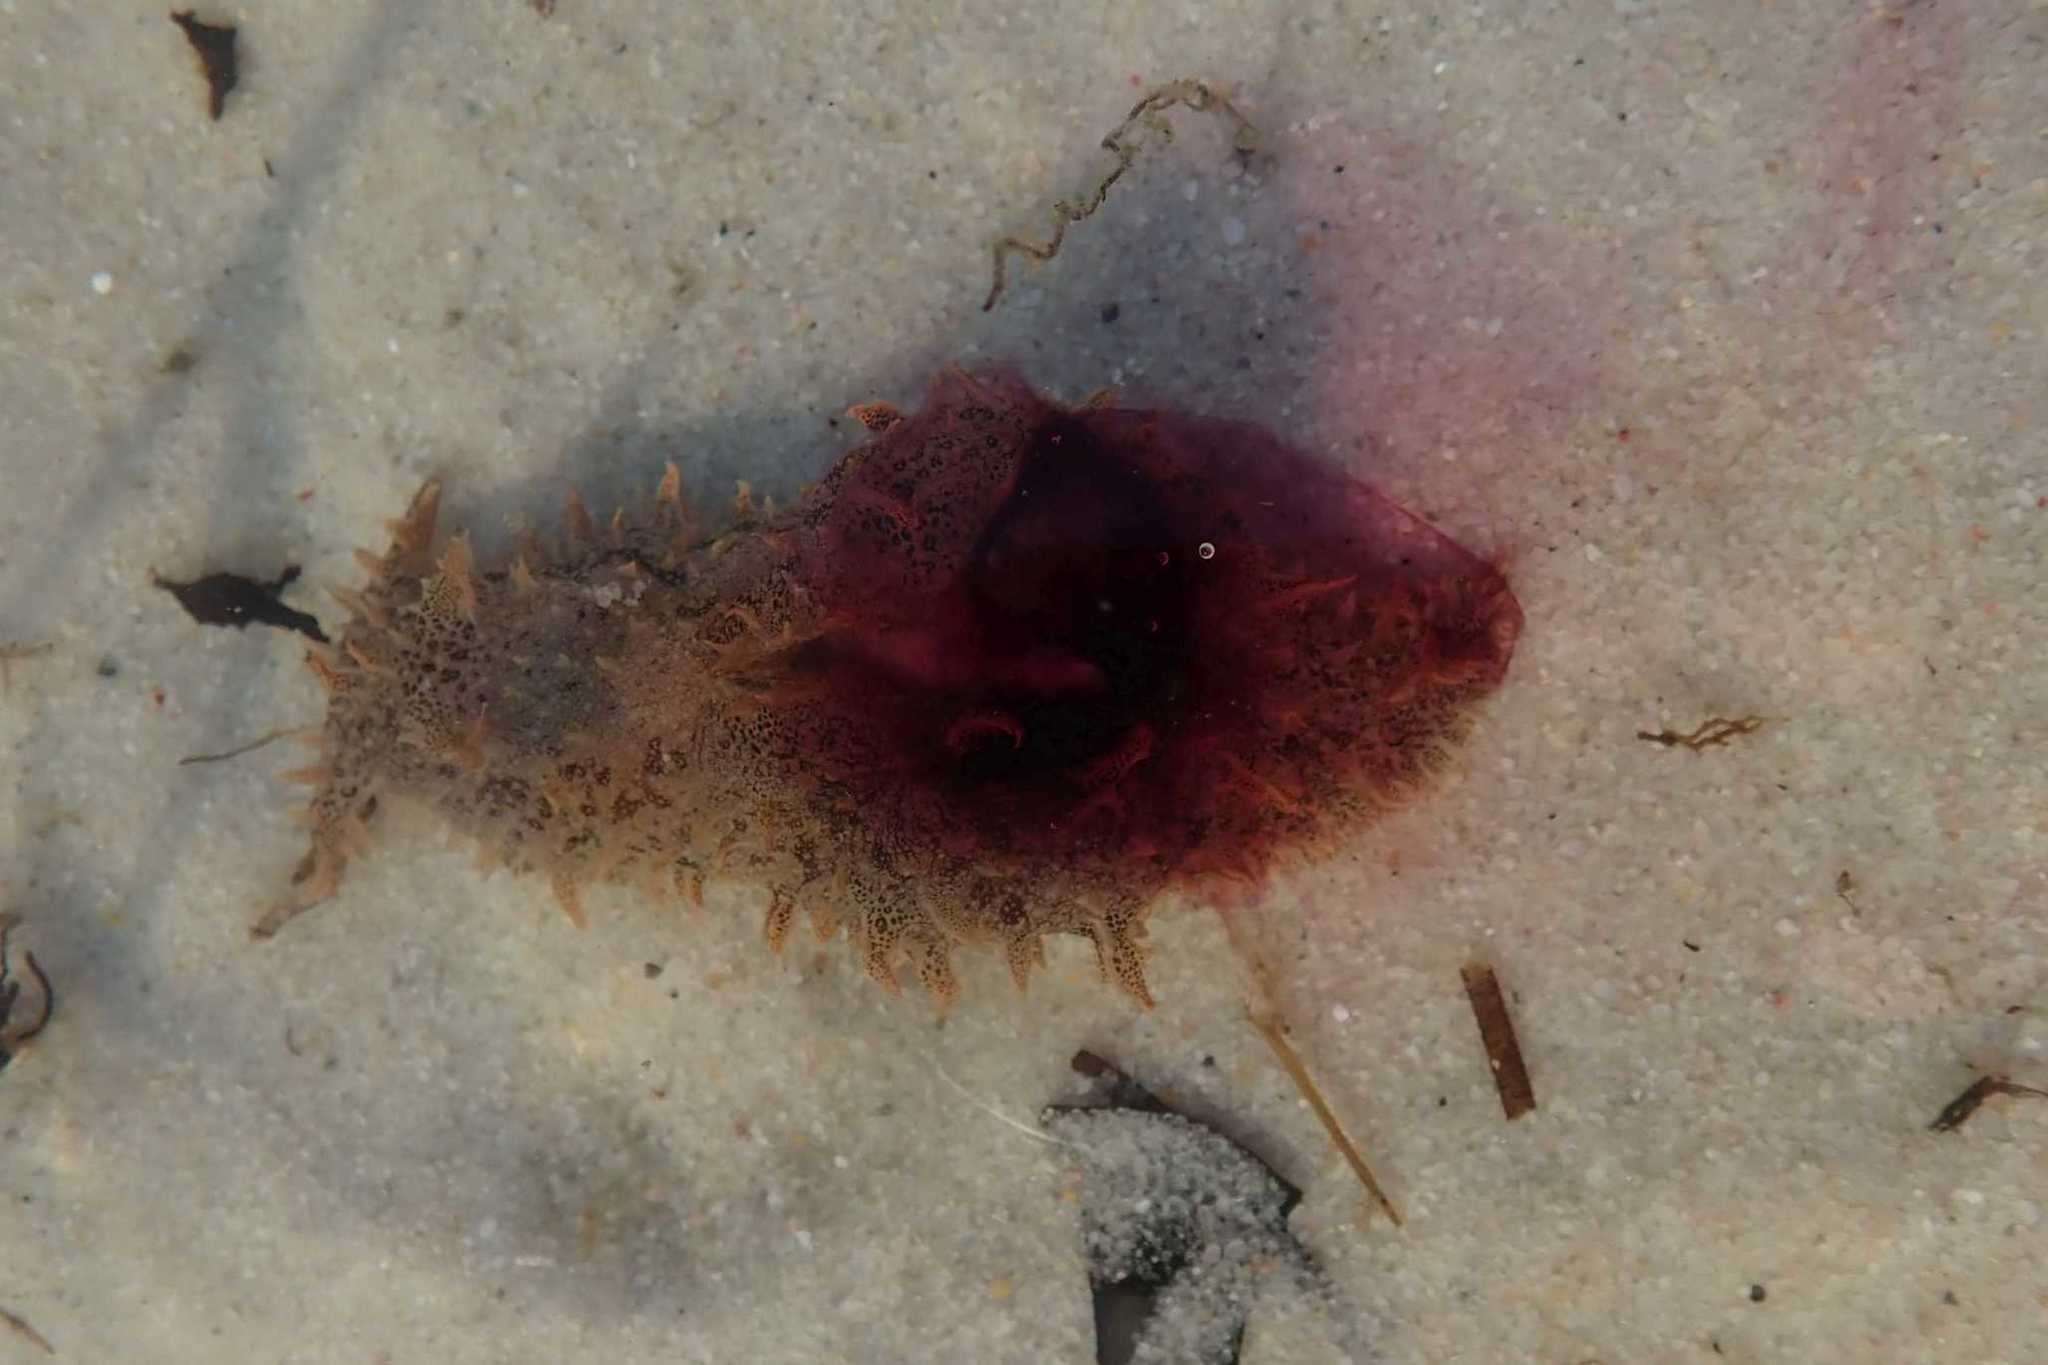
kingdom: Animalia
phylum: Mollusca
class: Gastropoda
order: Aplysiida
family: Aplysiidae
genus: Bursatella
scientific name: Bursatella leachii
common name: Shaggy sea hare
